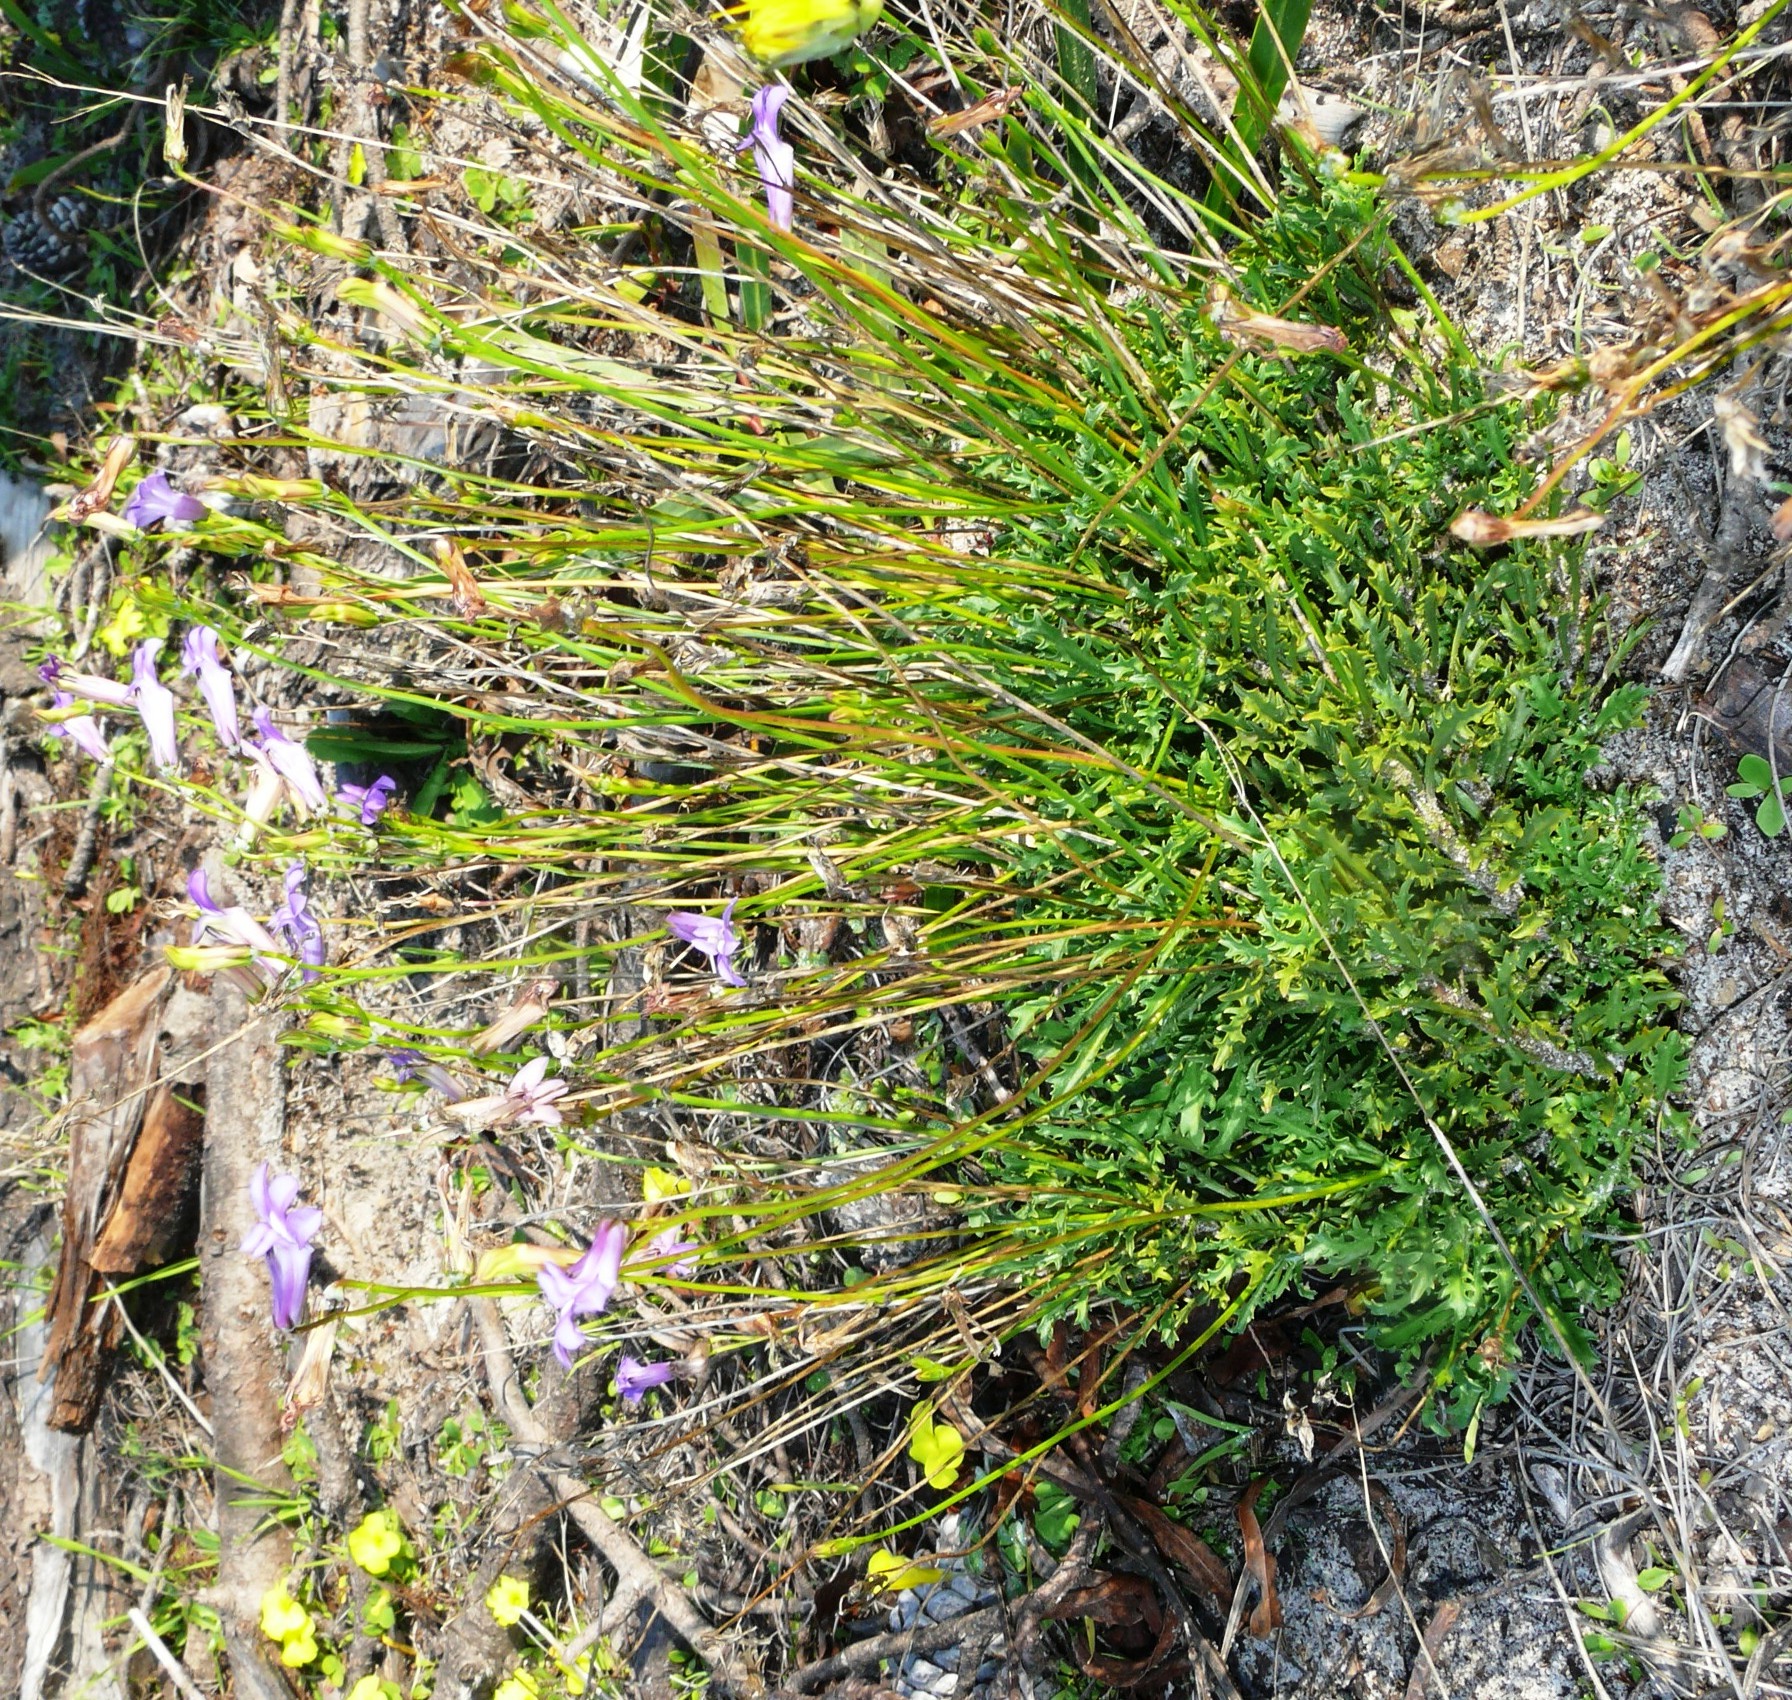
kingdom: Plantae
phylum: Tracheophyta
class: Magnoliopsida
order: Asterales
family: Campanulaceae
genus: Lobelia
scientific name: Lobelia coronopifolia
